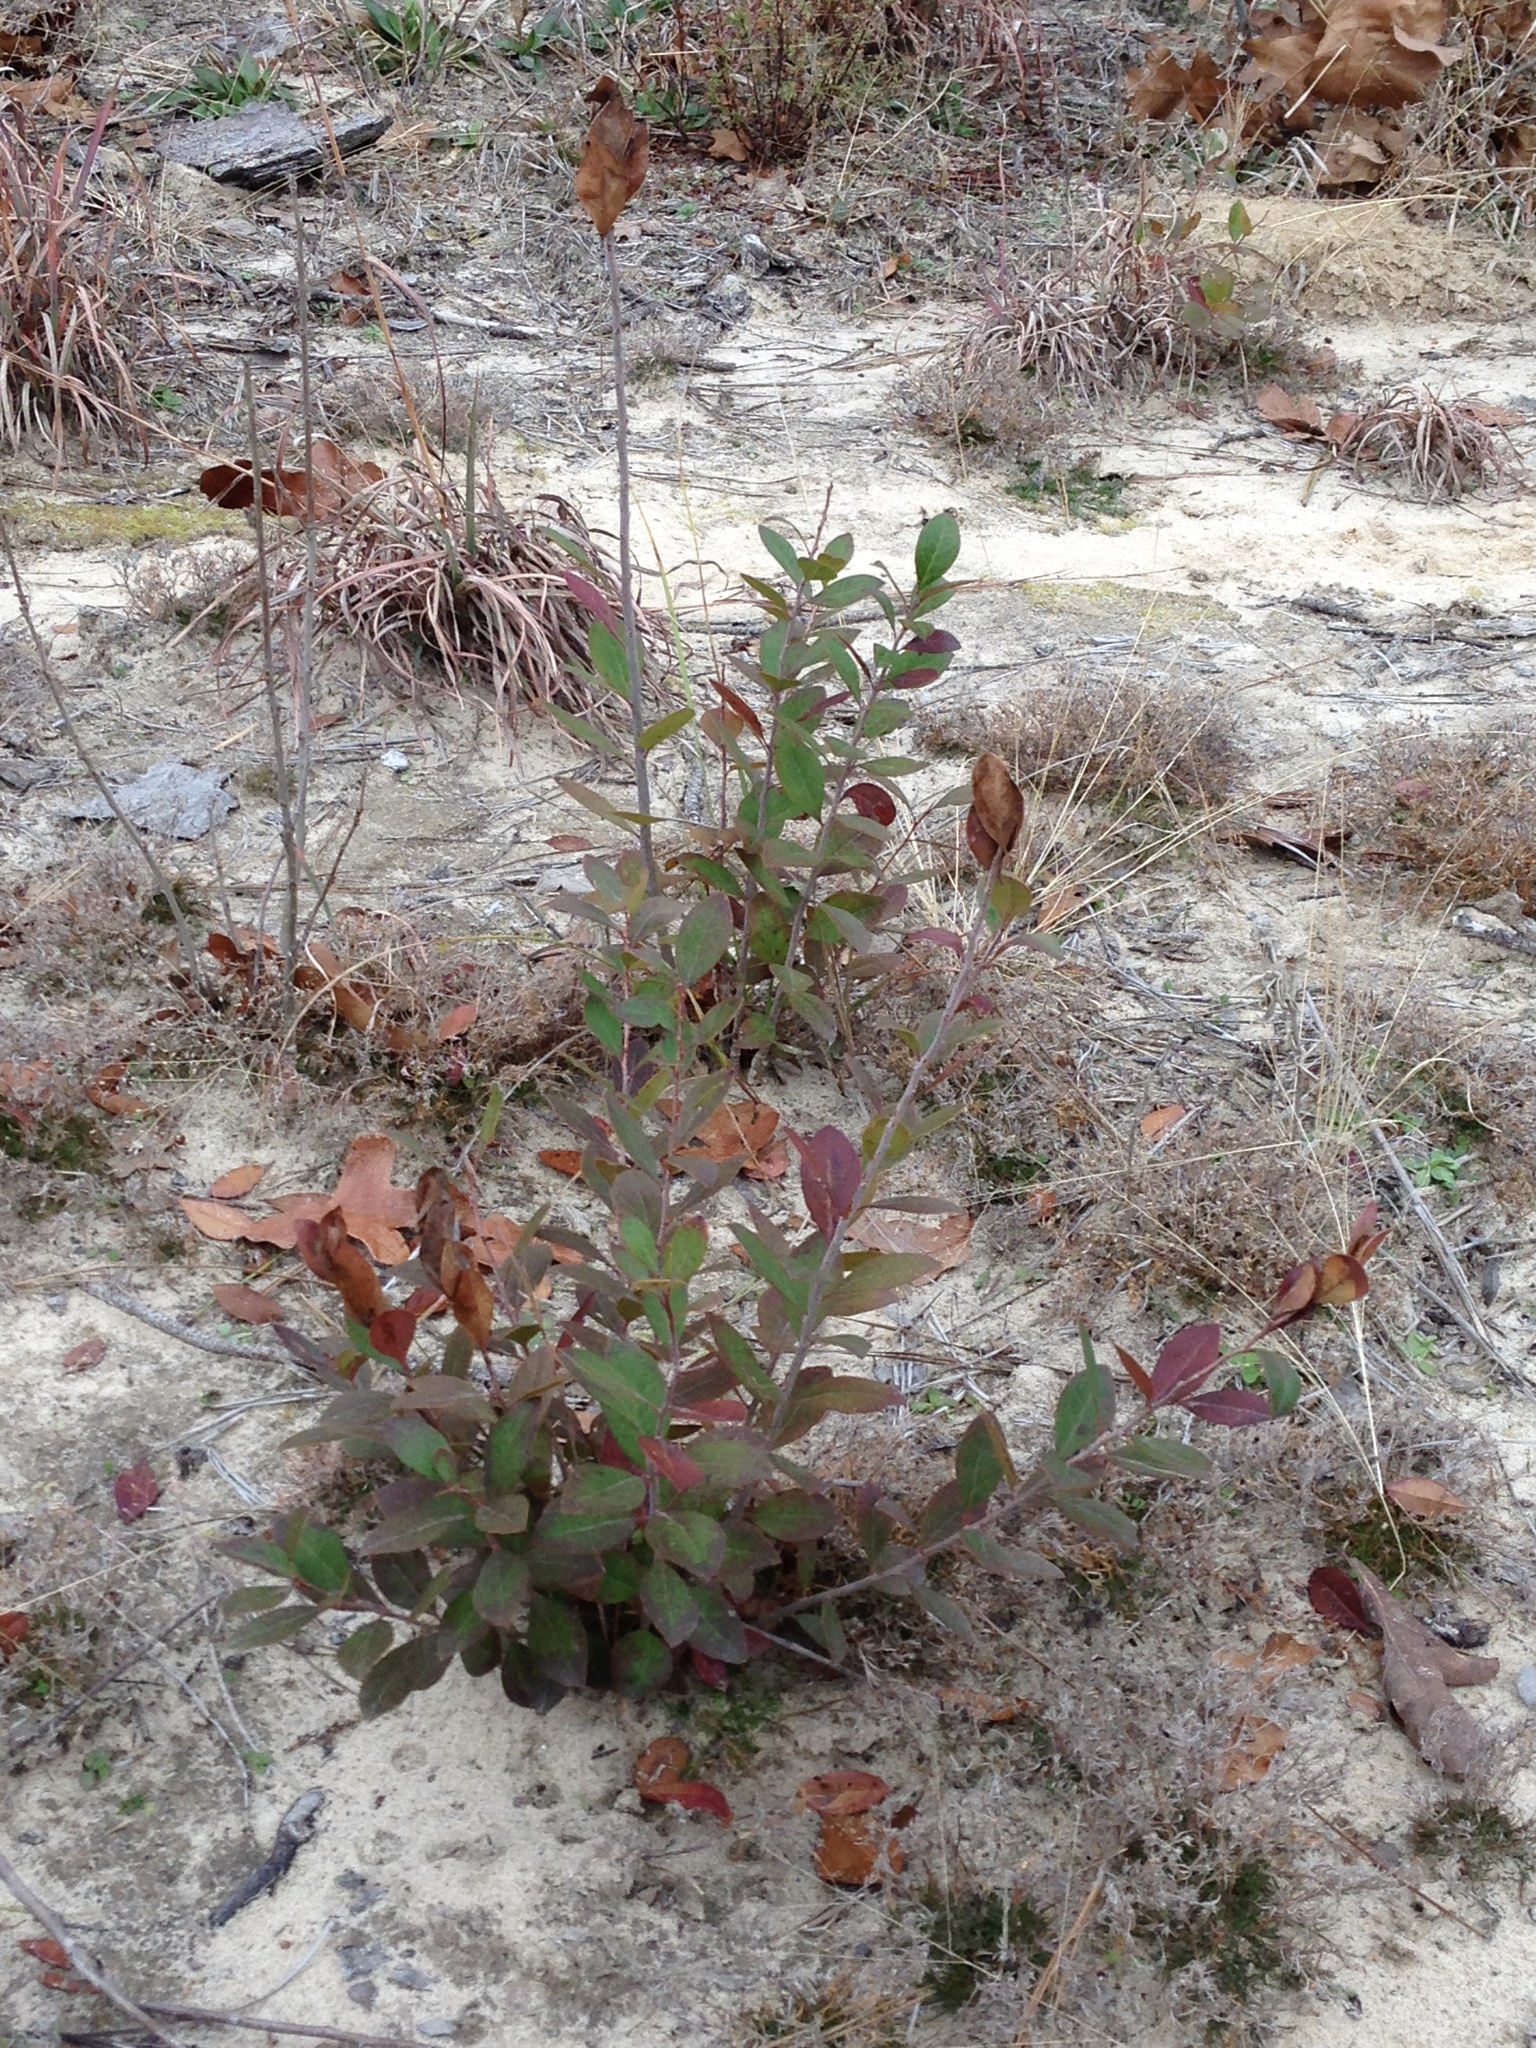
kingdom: Plantae
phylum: Tracheophyta
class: Magnoliopsida
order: Ericales
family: Ericaceae
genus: Vaccinium
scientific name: Vaccinium arboreum
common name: Farkleberry
